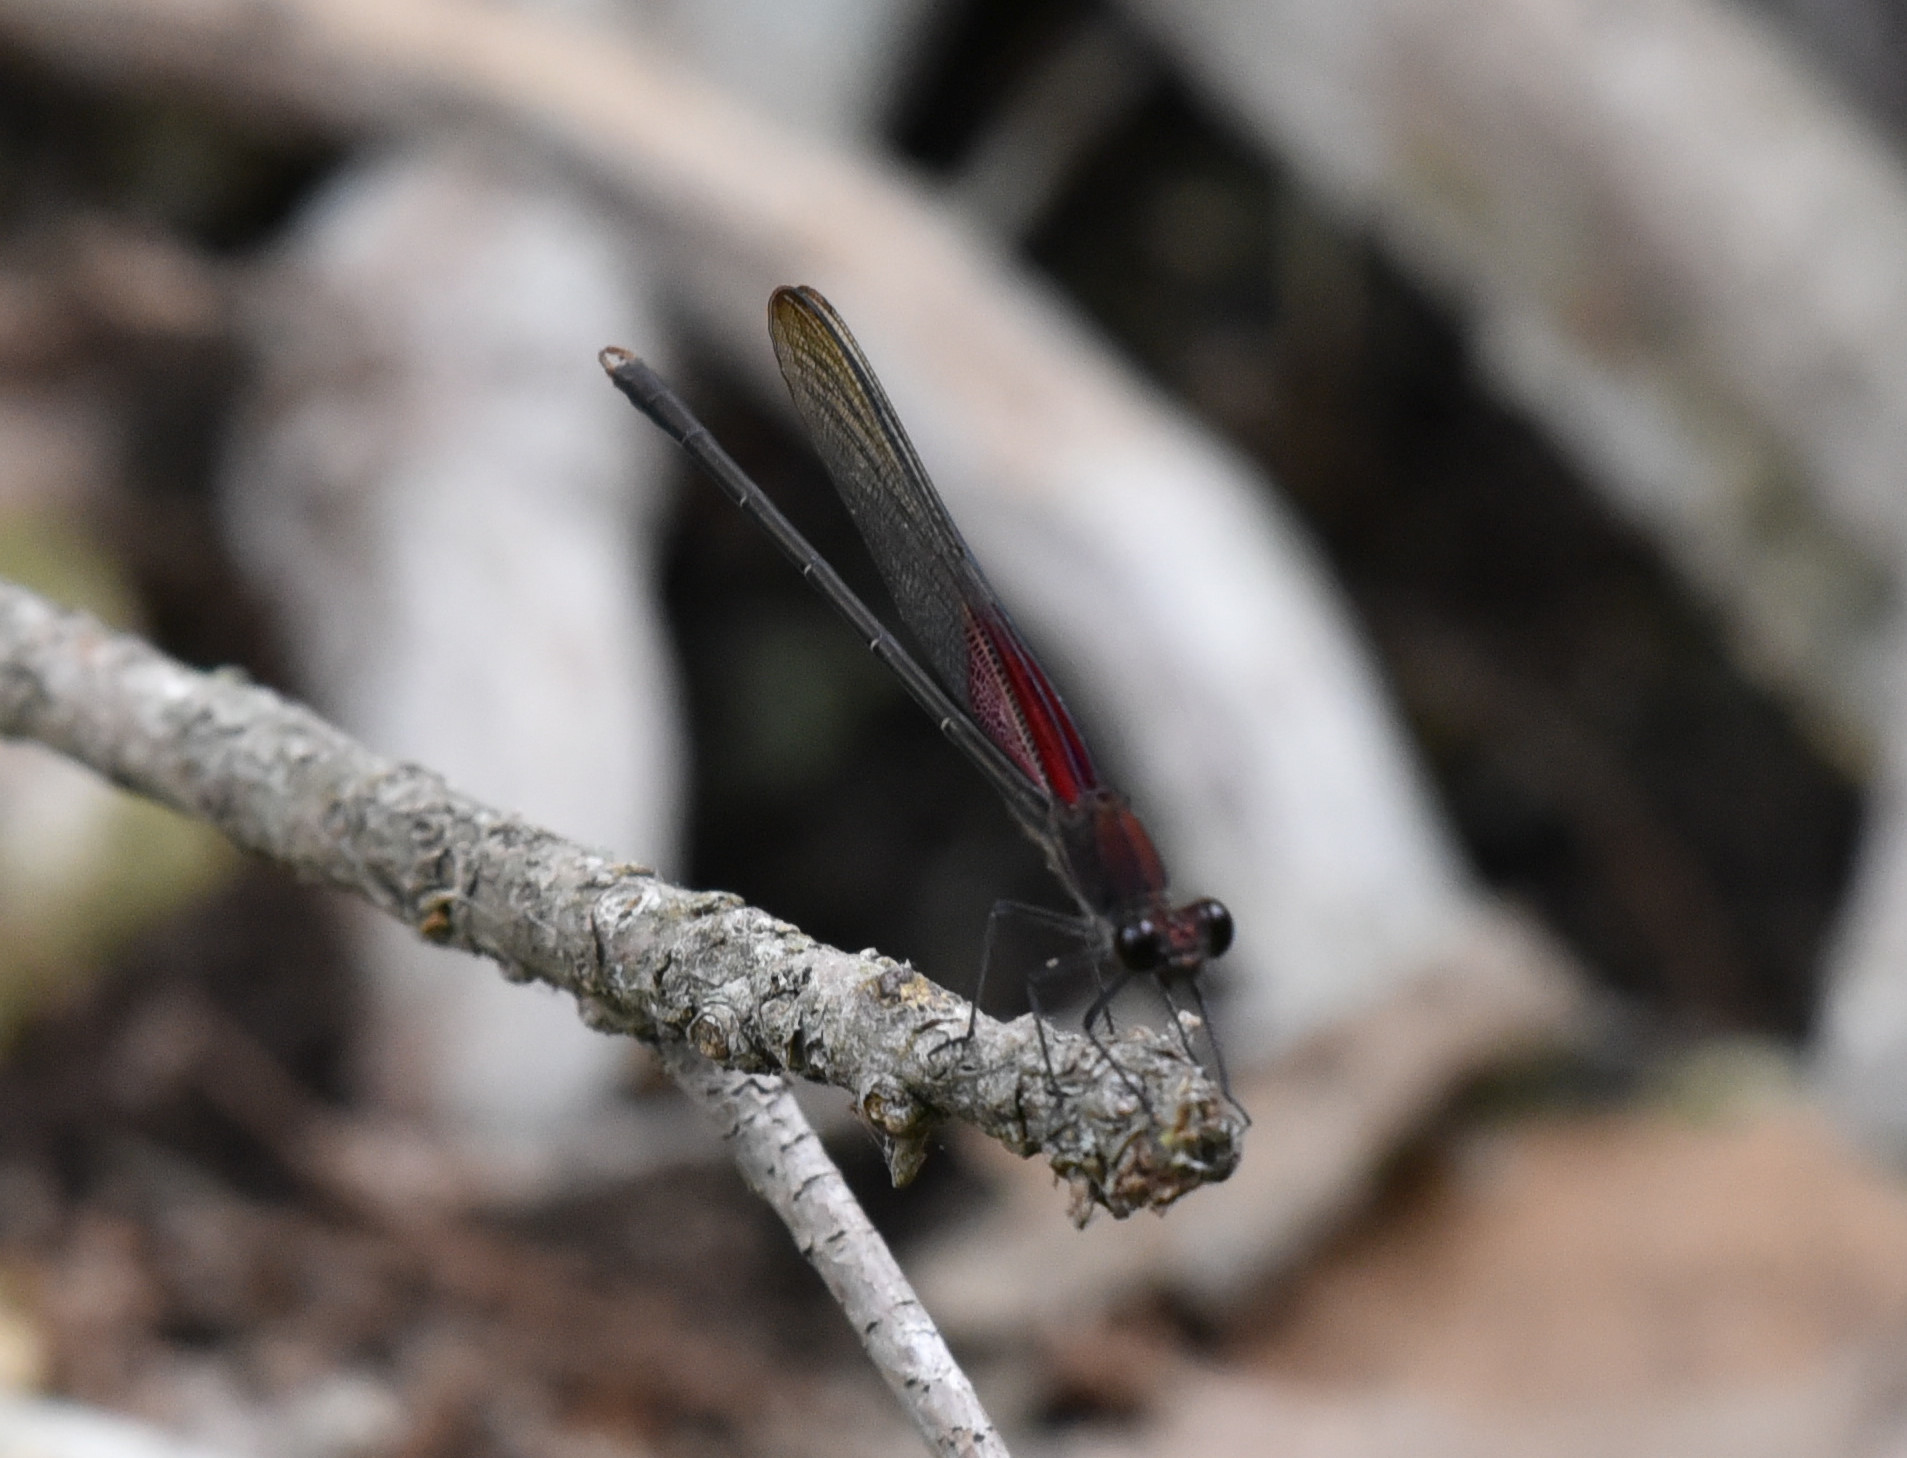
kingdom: Animalia
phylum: Arthropoda
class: Insecta
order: Odonata
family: Calopterygidae
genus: Hetaerina
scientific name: Hetaerina americana
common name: American rubyspot
